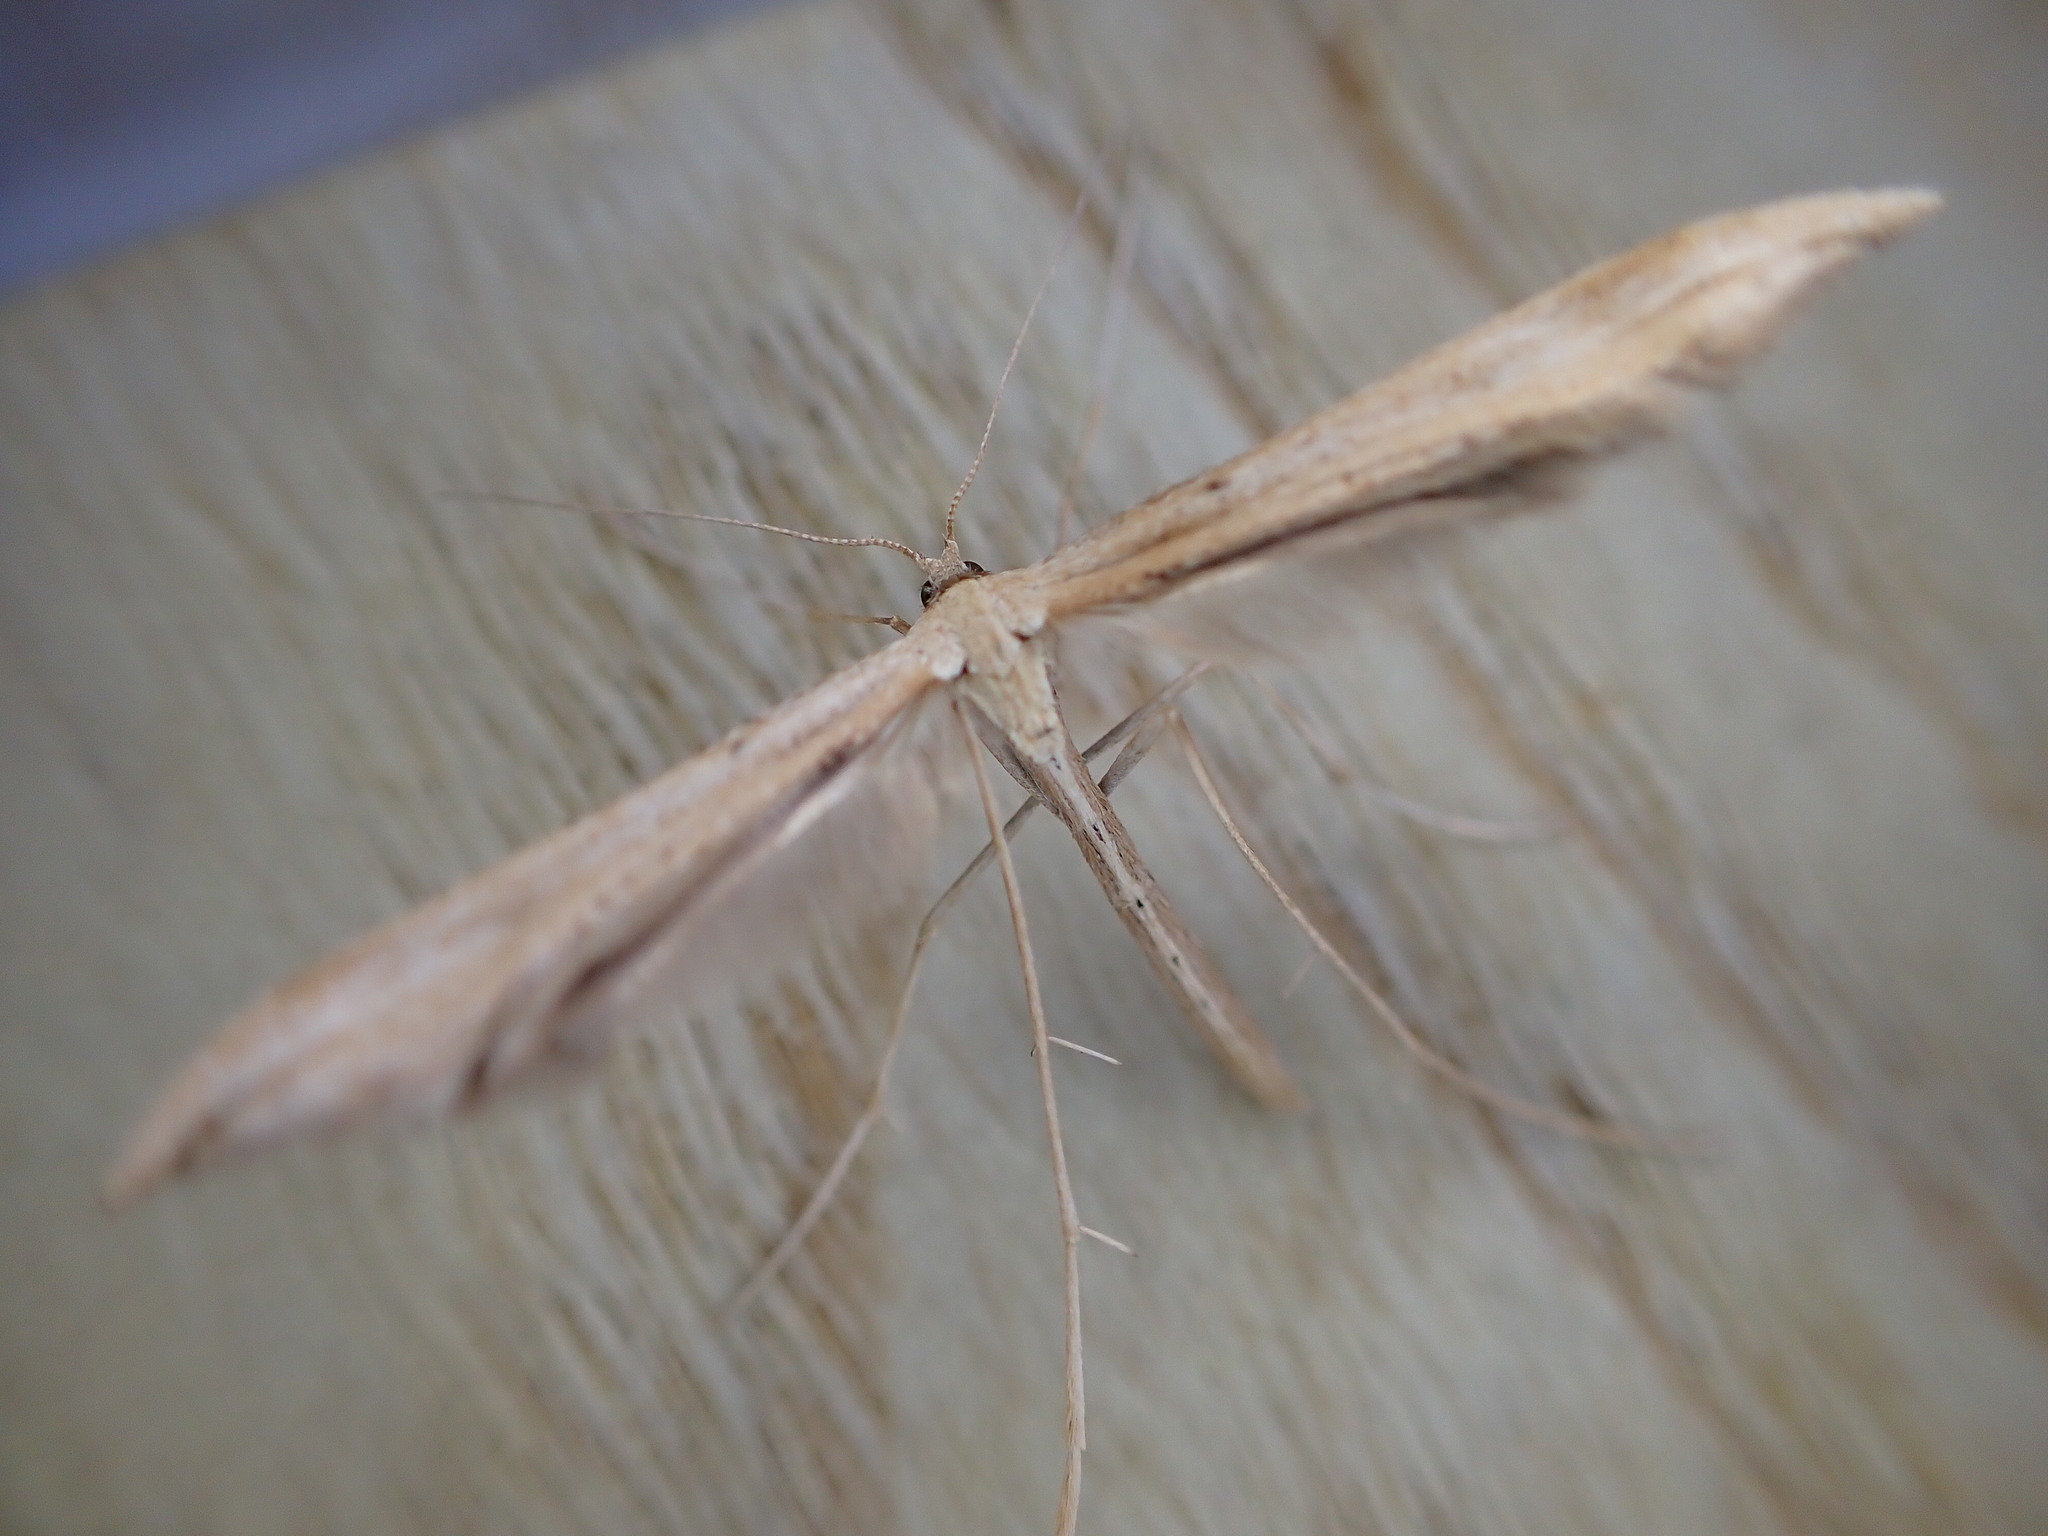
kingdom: Animalia
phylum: Arthropoda
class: Insecta
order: Lepidoptera
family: Pterophoridae
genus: Emmelina
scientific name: Emmelina monodactyla
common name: Common plume
